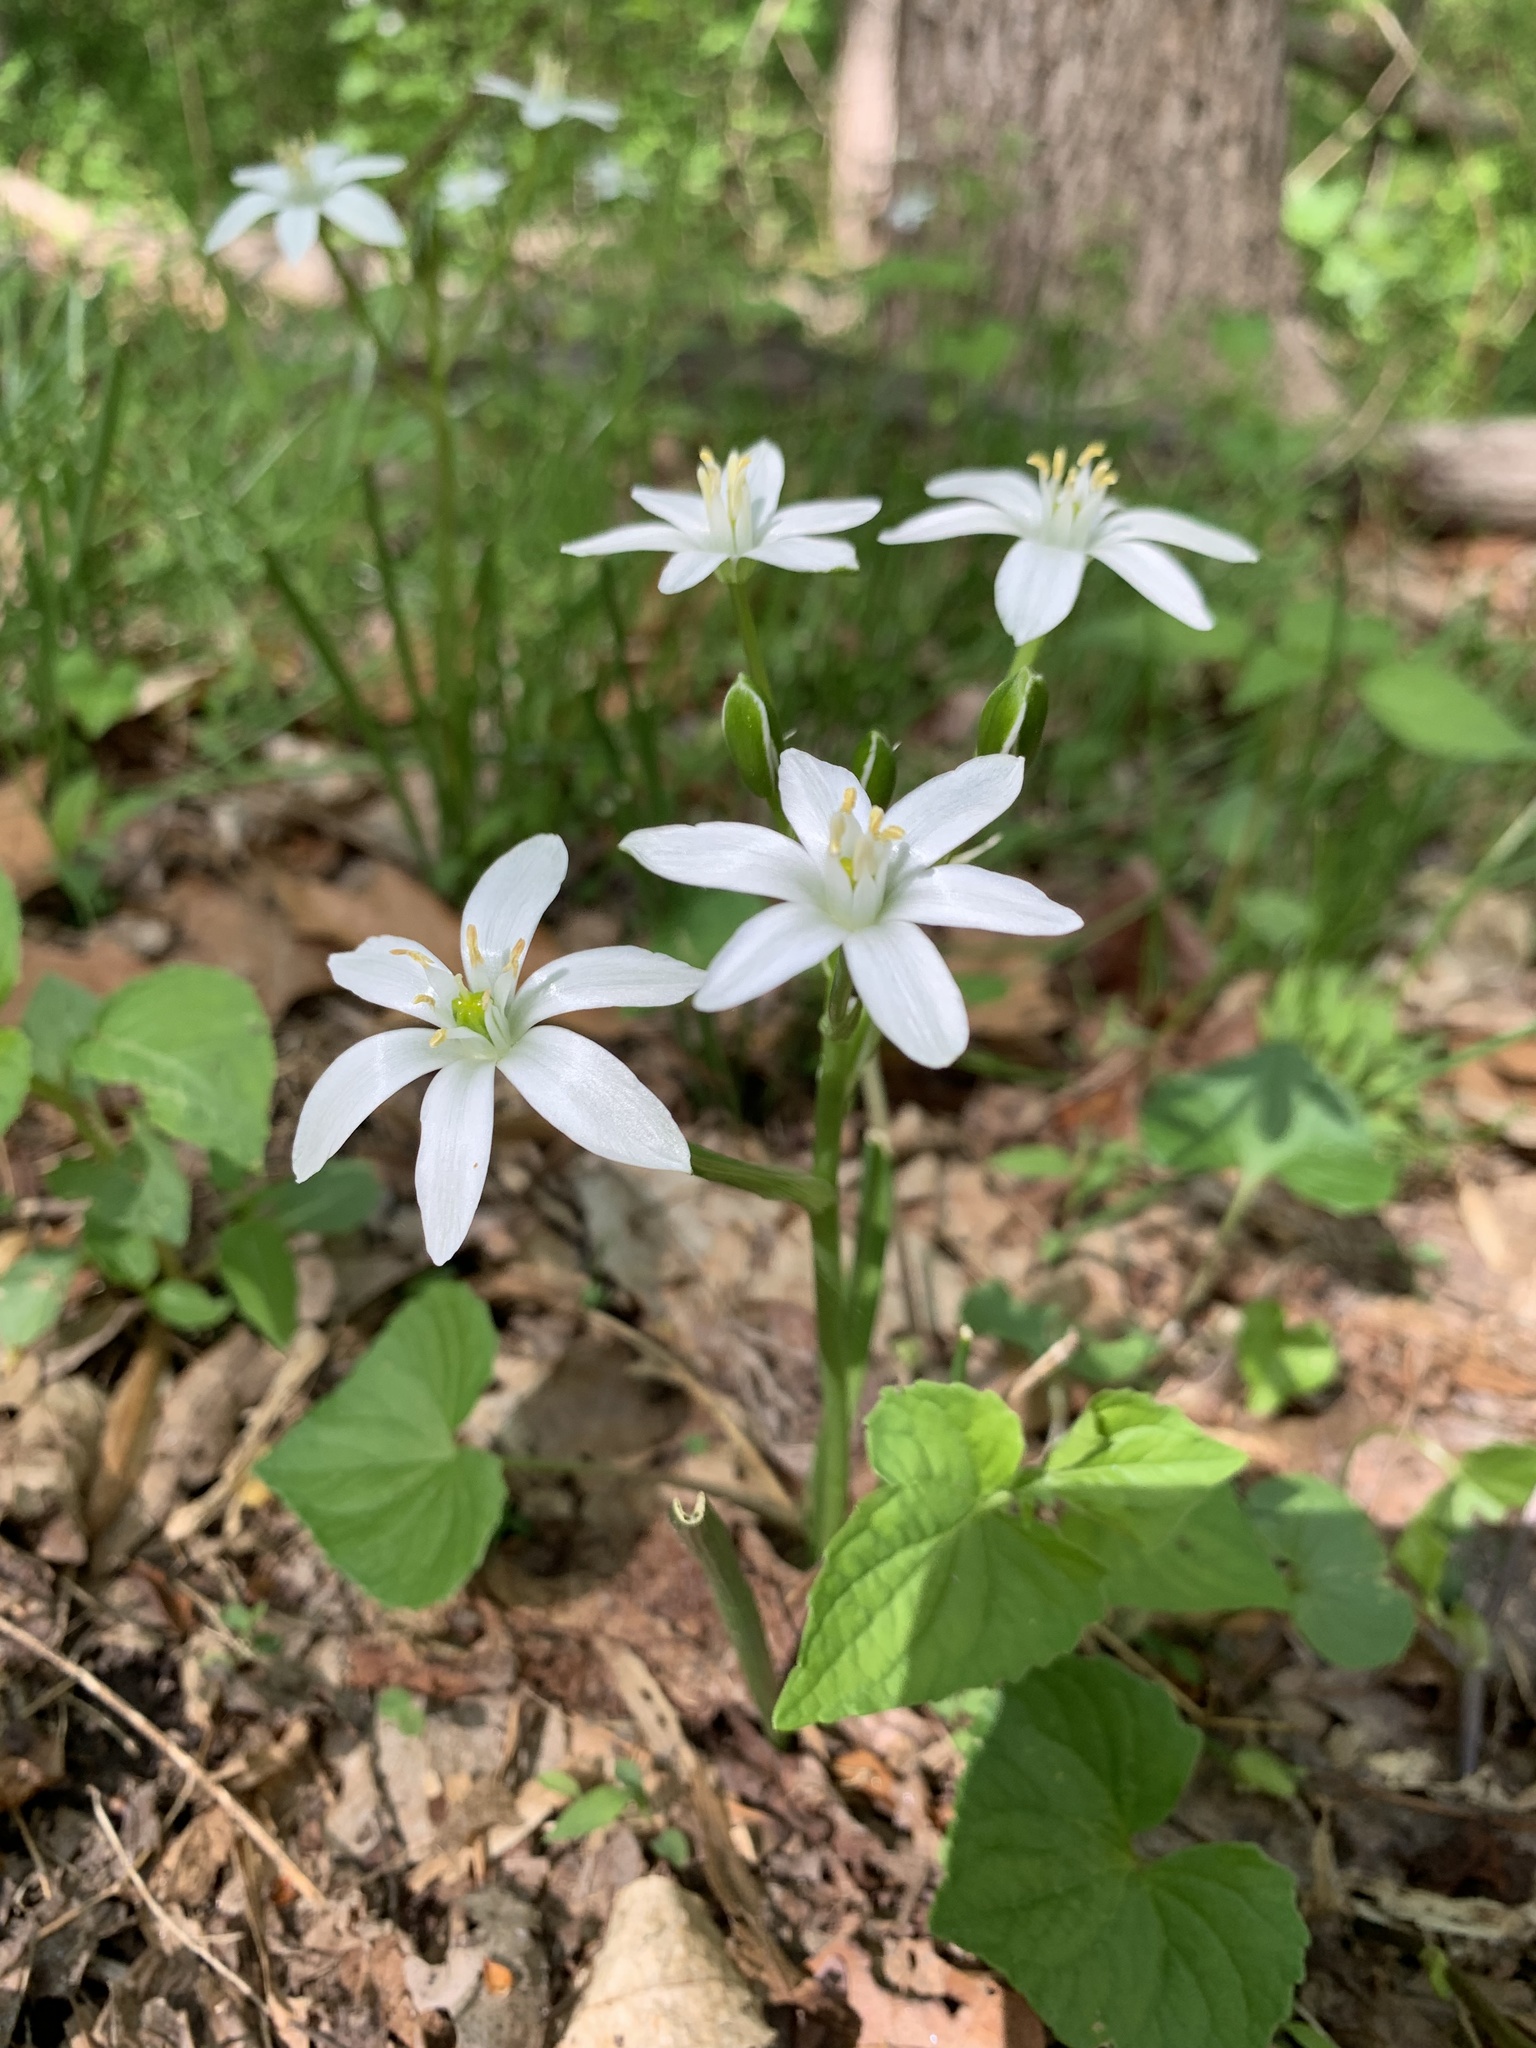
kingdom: Plantae
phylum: Tracheophyta
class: Liliopsida
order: Asparagales
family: Asparagaceae
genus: Ornithogalum
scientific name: Ornithogalum umbellatum
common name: Garden star-of-bethlehem
